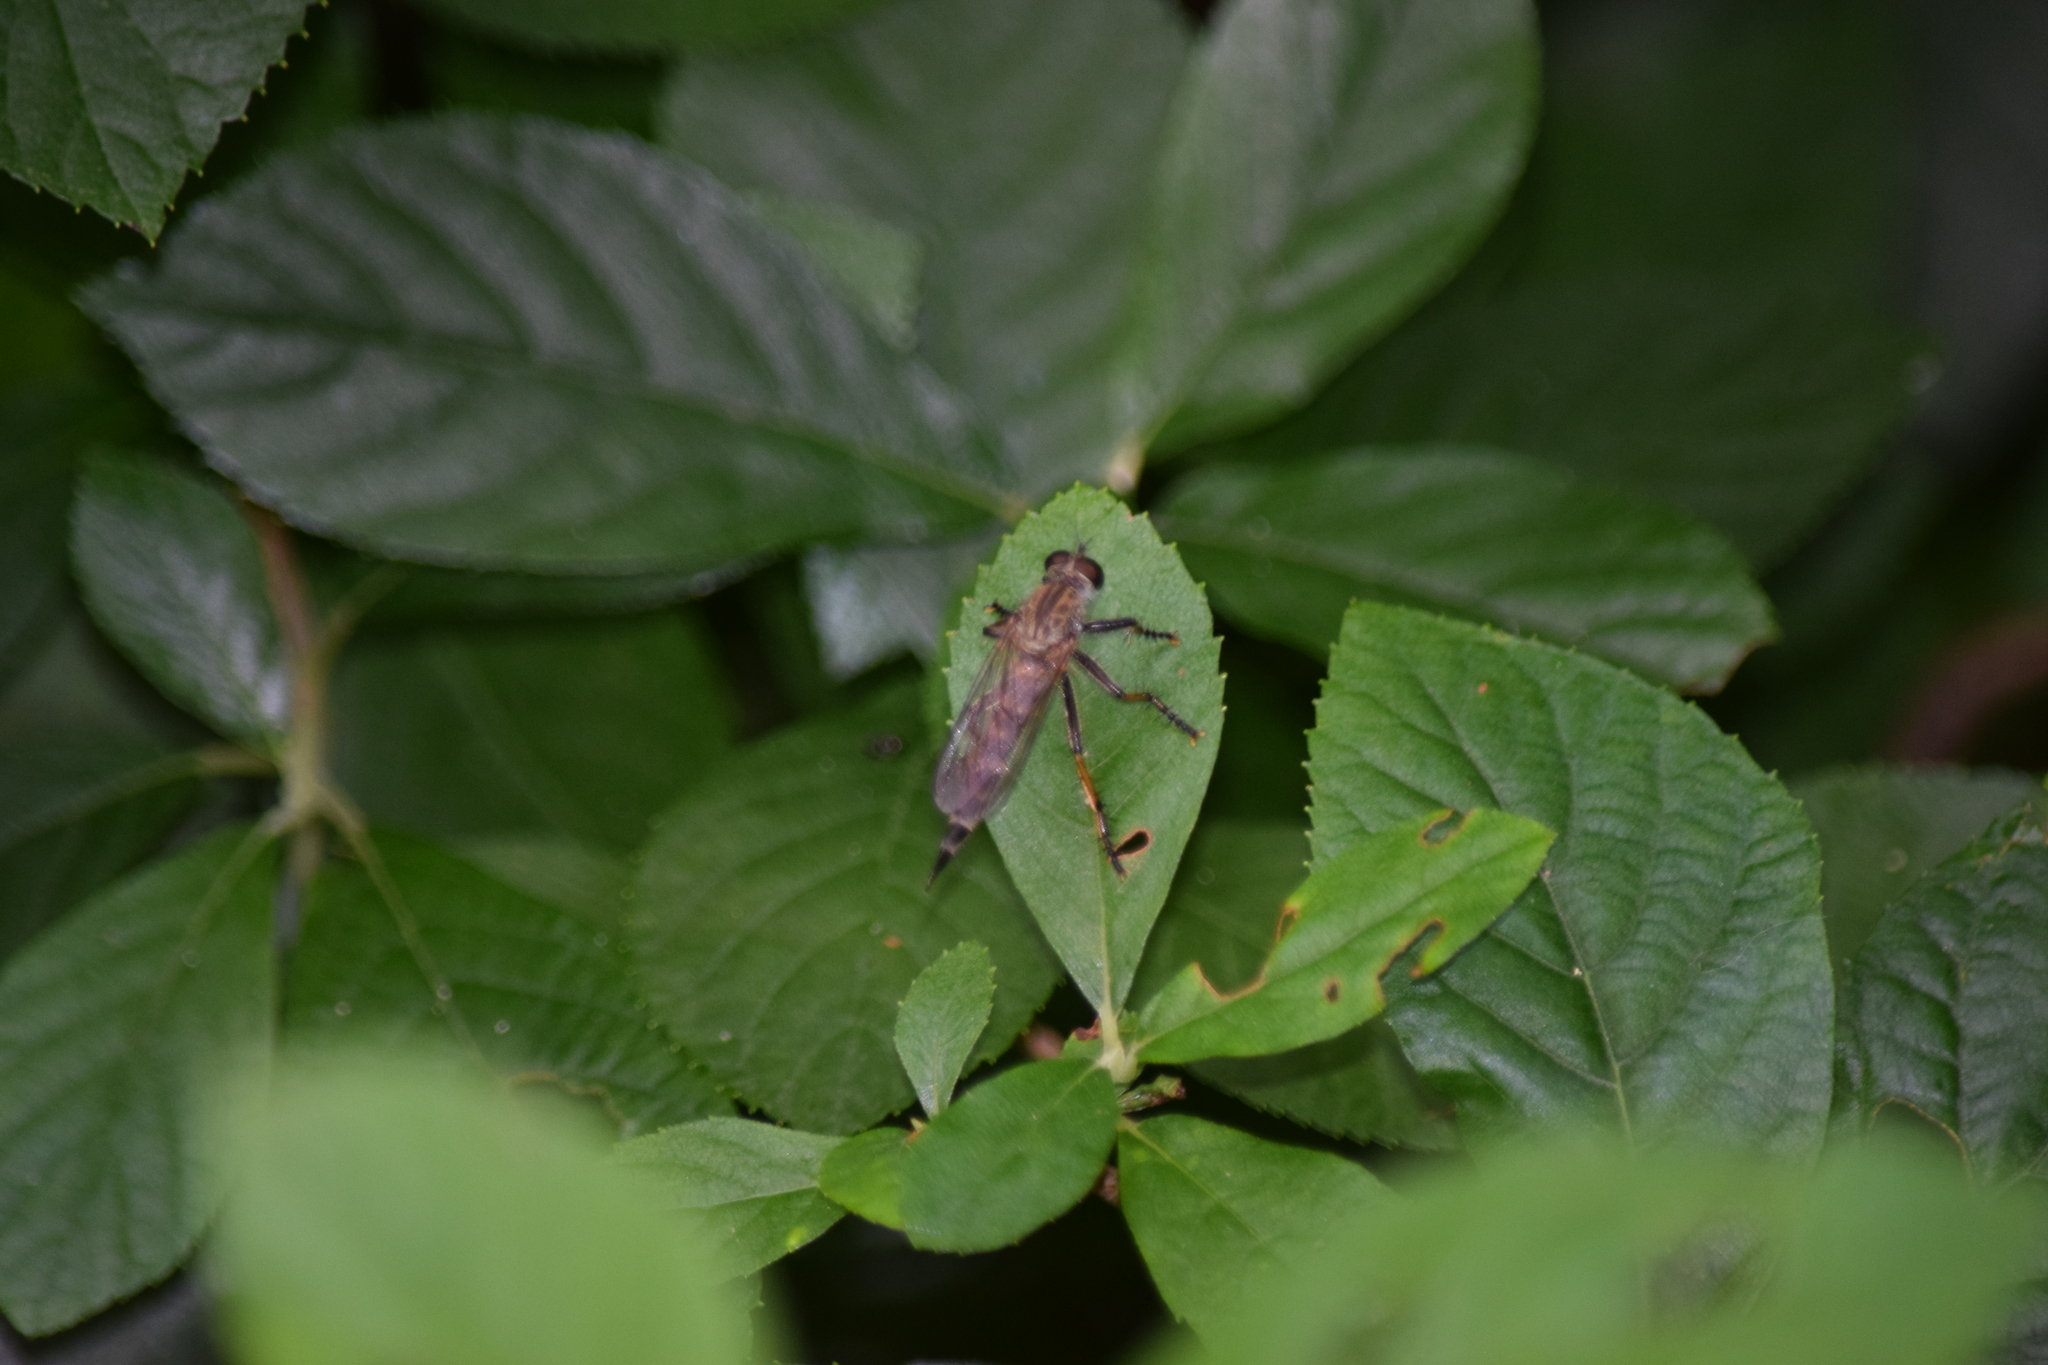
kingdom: Animalia
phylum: Arthropoda
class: Insecta
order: Diptera
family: Asilidae
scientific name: Asilidae
